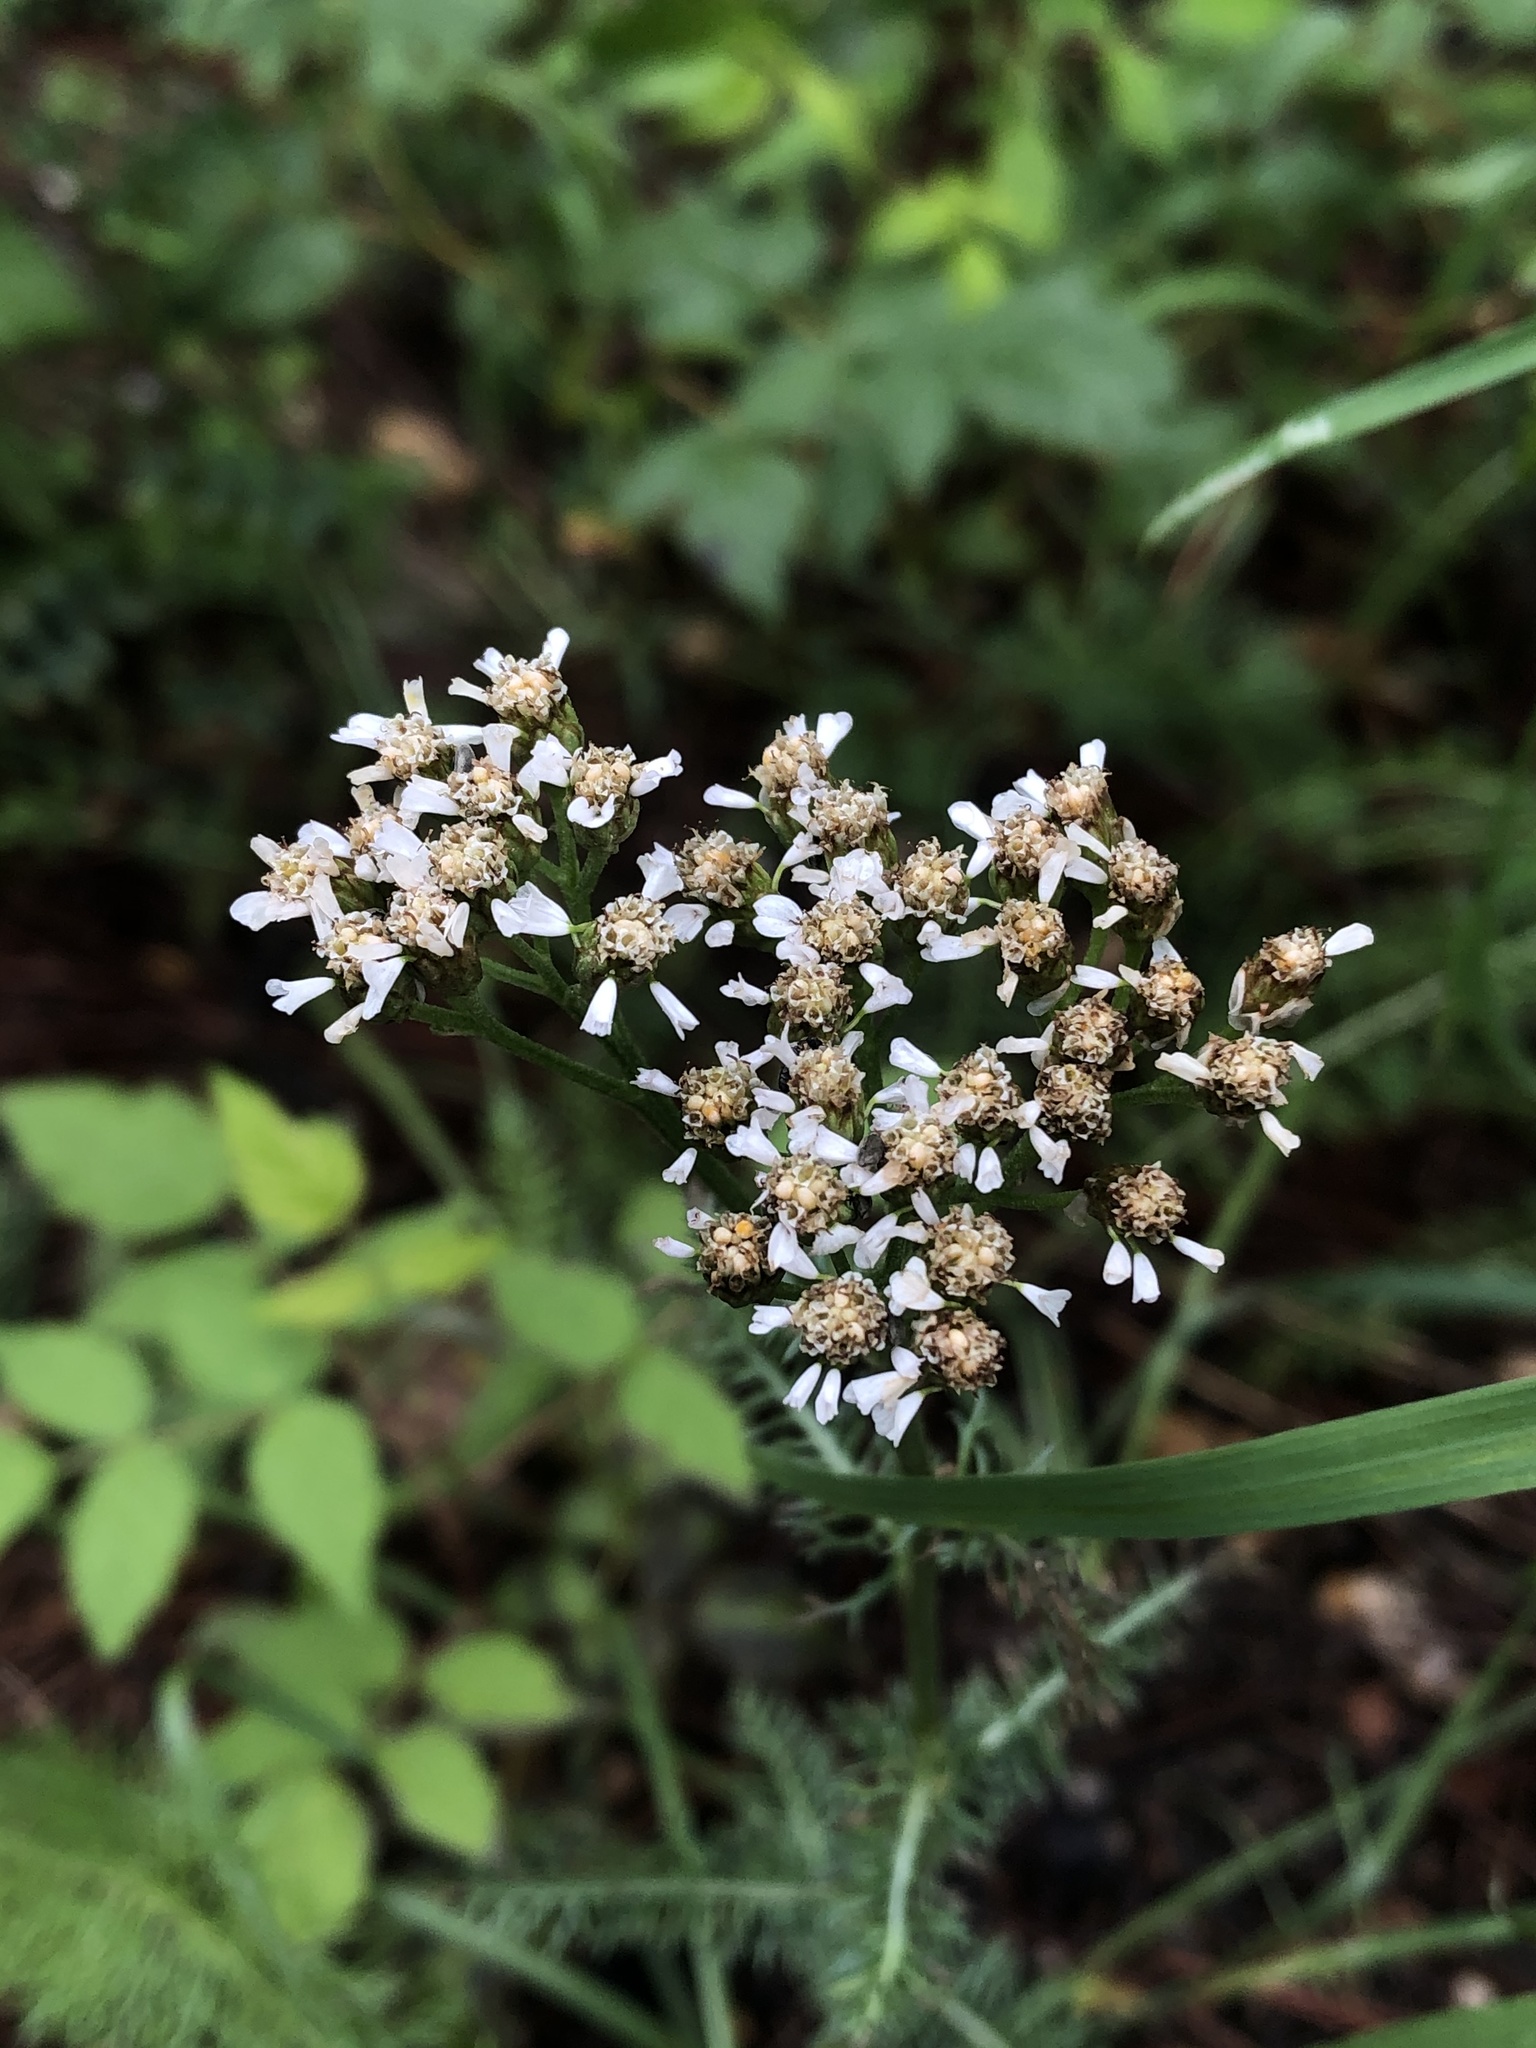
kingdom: Plantae
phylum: Tracheophyta
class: Magnoliopsida
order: Asterales
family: Asteraceae
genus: Achillea
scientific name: Achillea millefolium
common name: Yarrow
